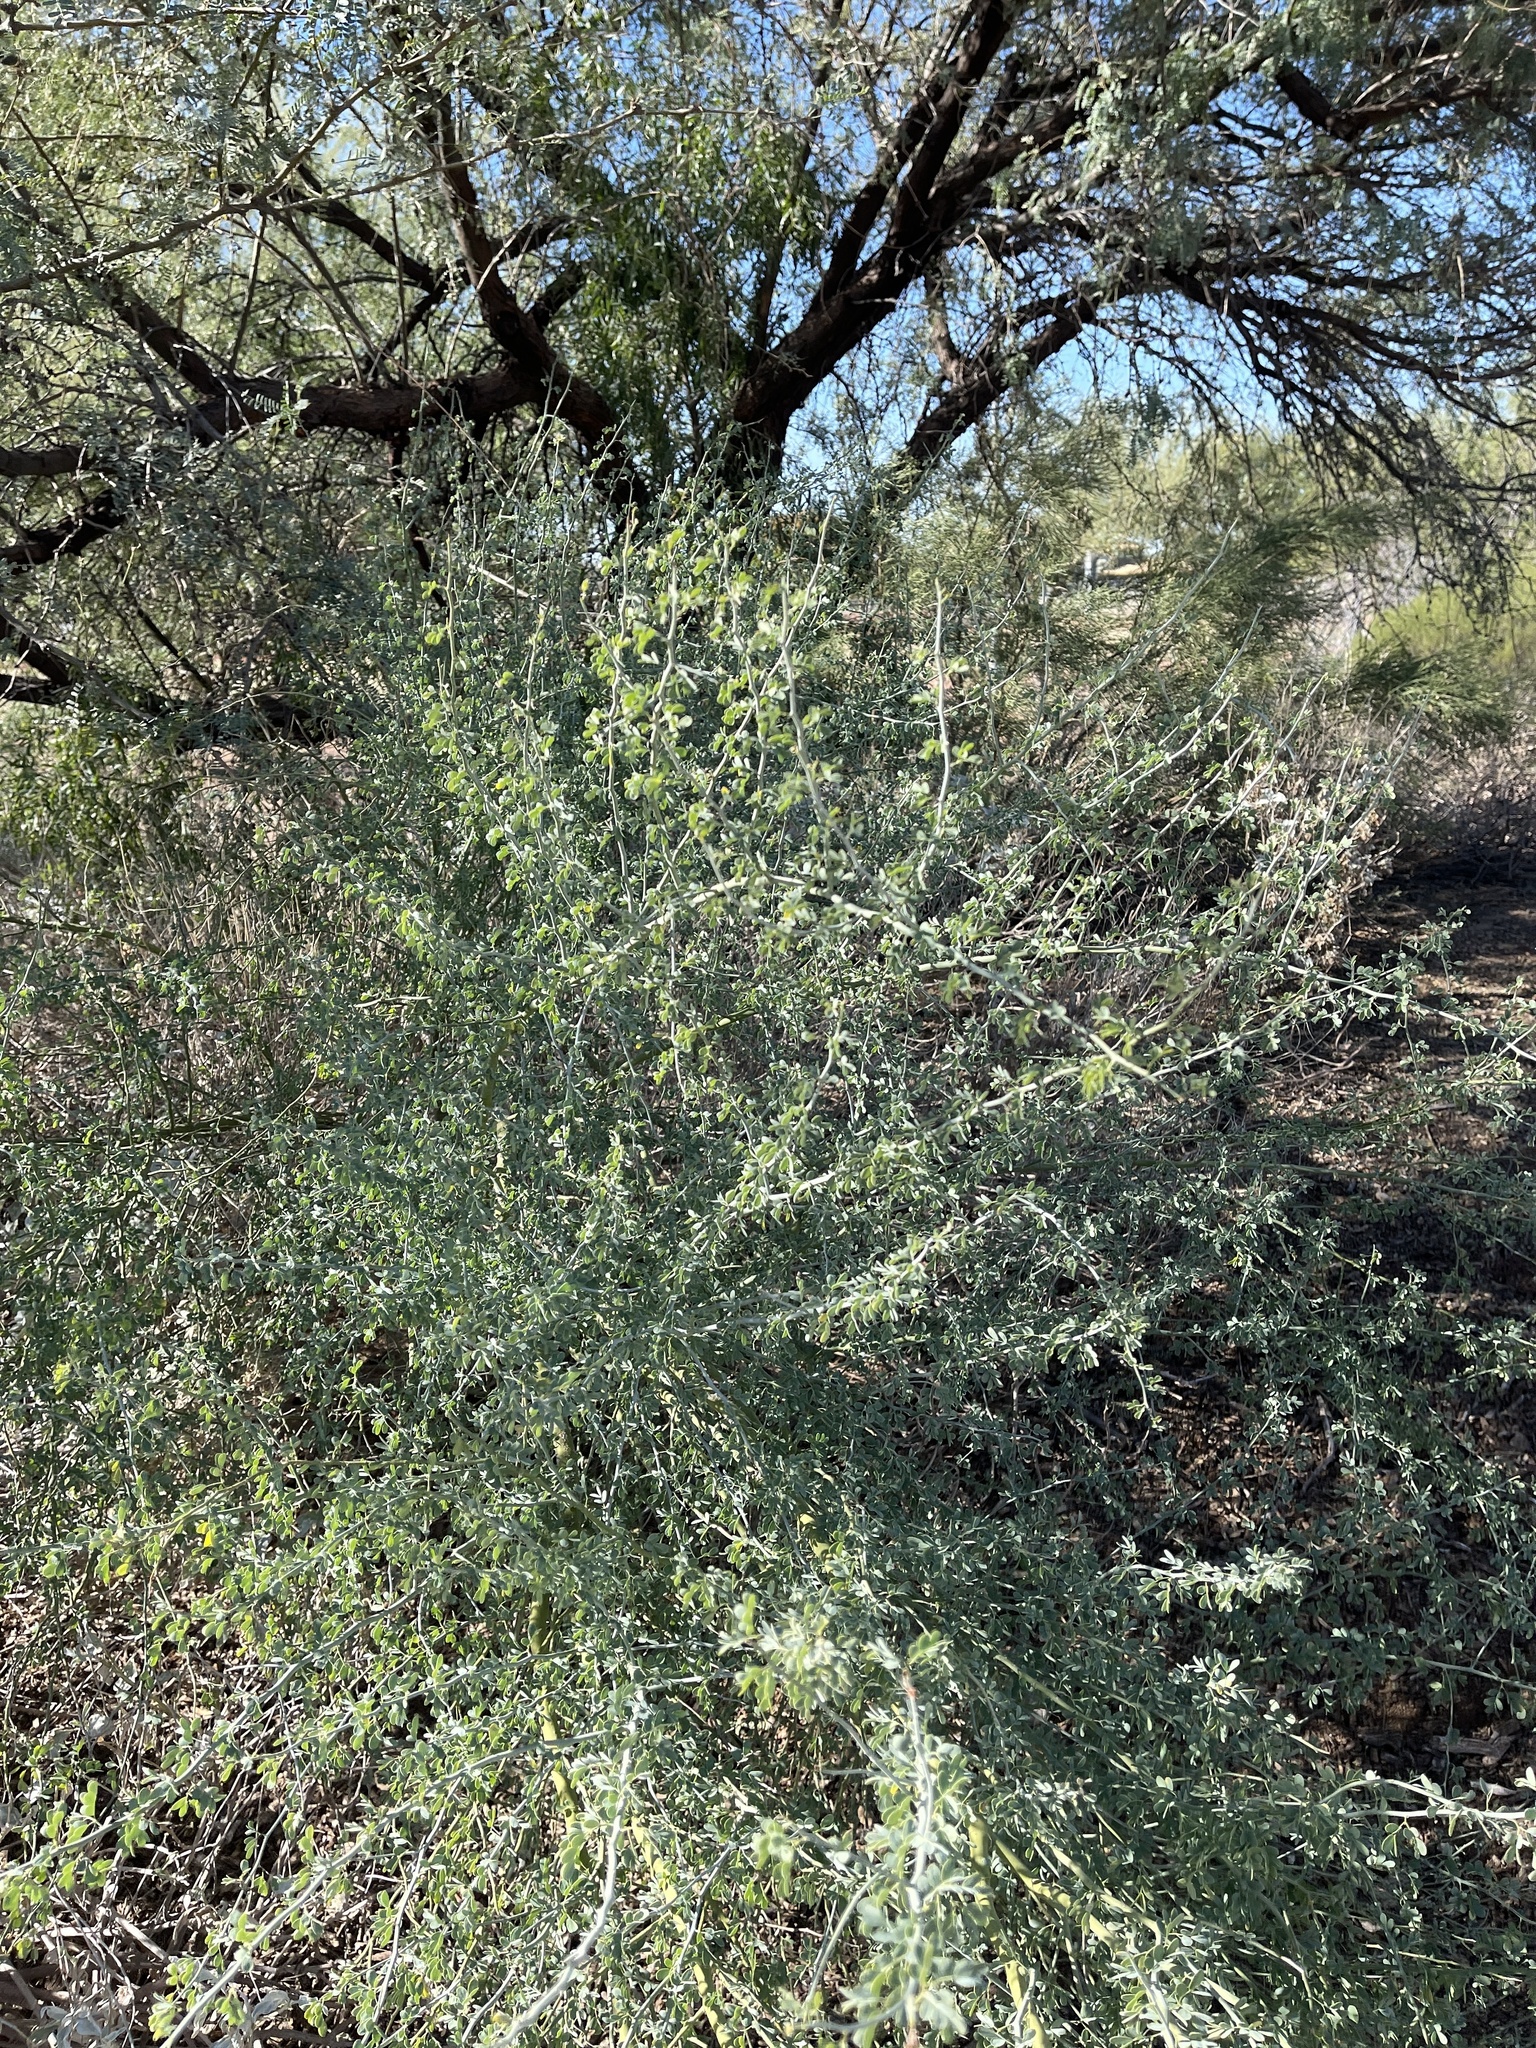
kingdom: Plantae
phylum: Tracheophyta
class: Magnoliopsida
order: Fabales
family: Fabaceae
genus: Parkinsonia
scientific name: Parkinsonia florida
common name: Blue paloverde
